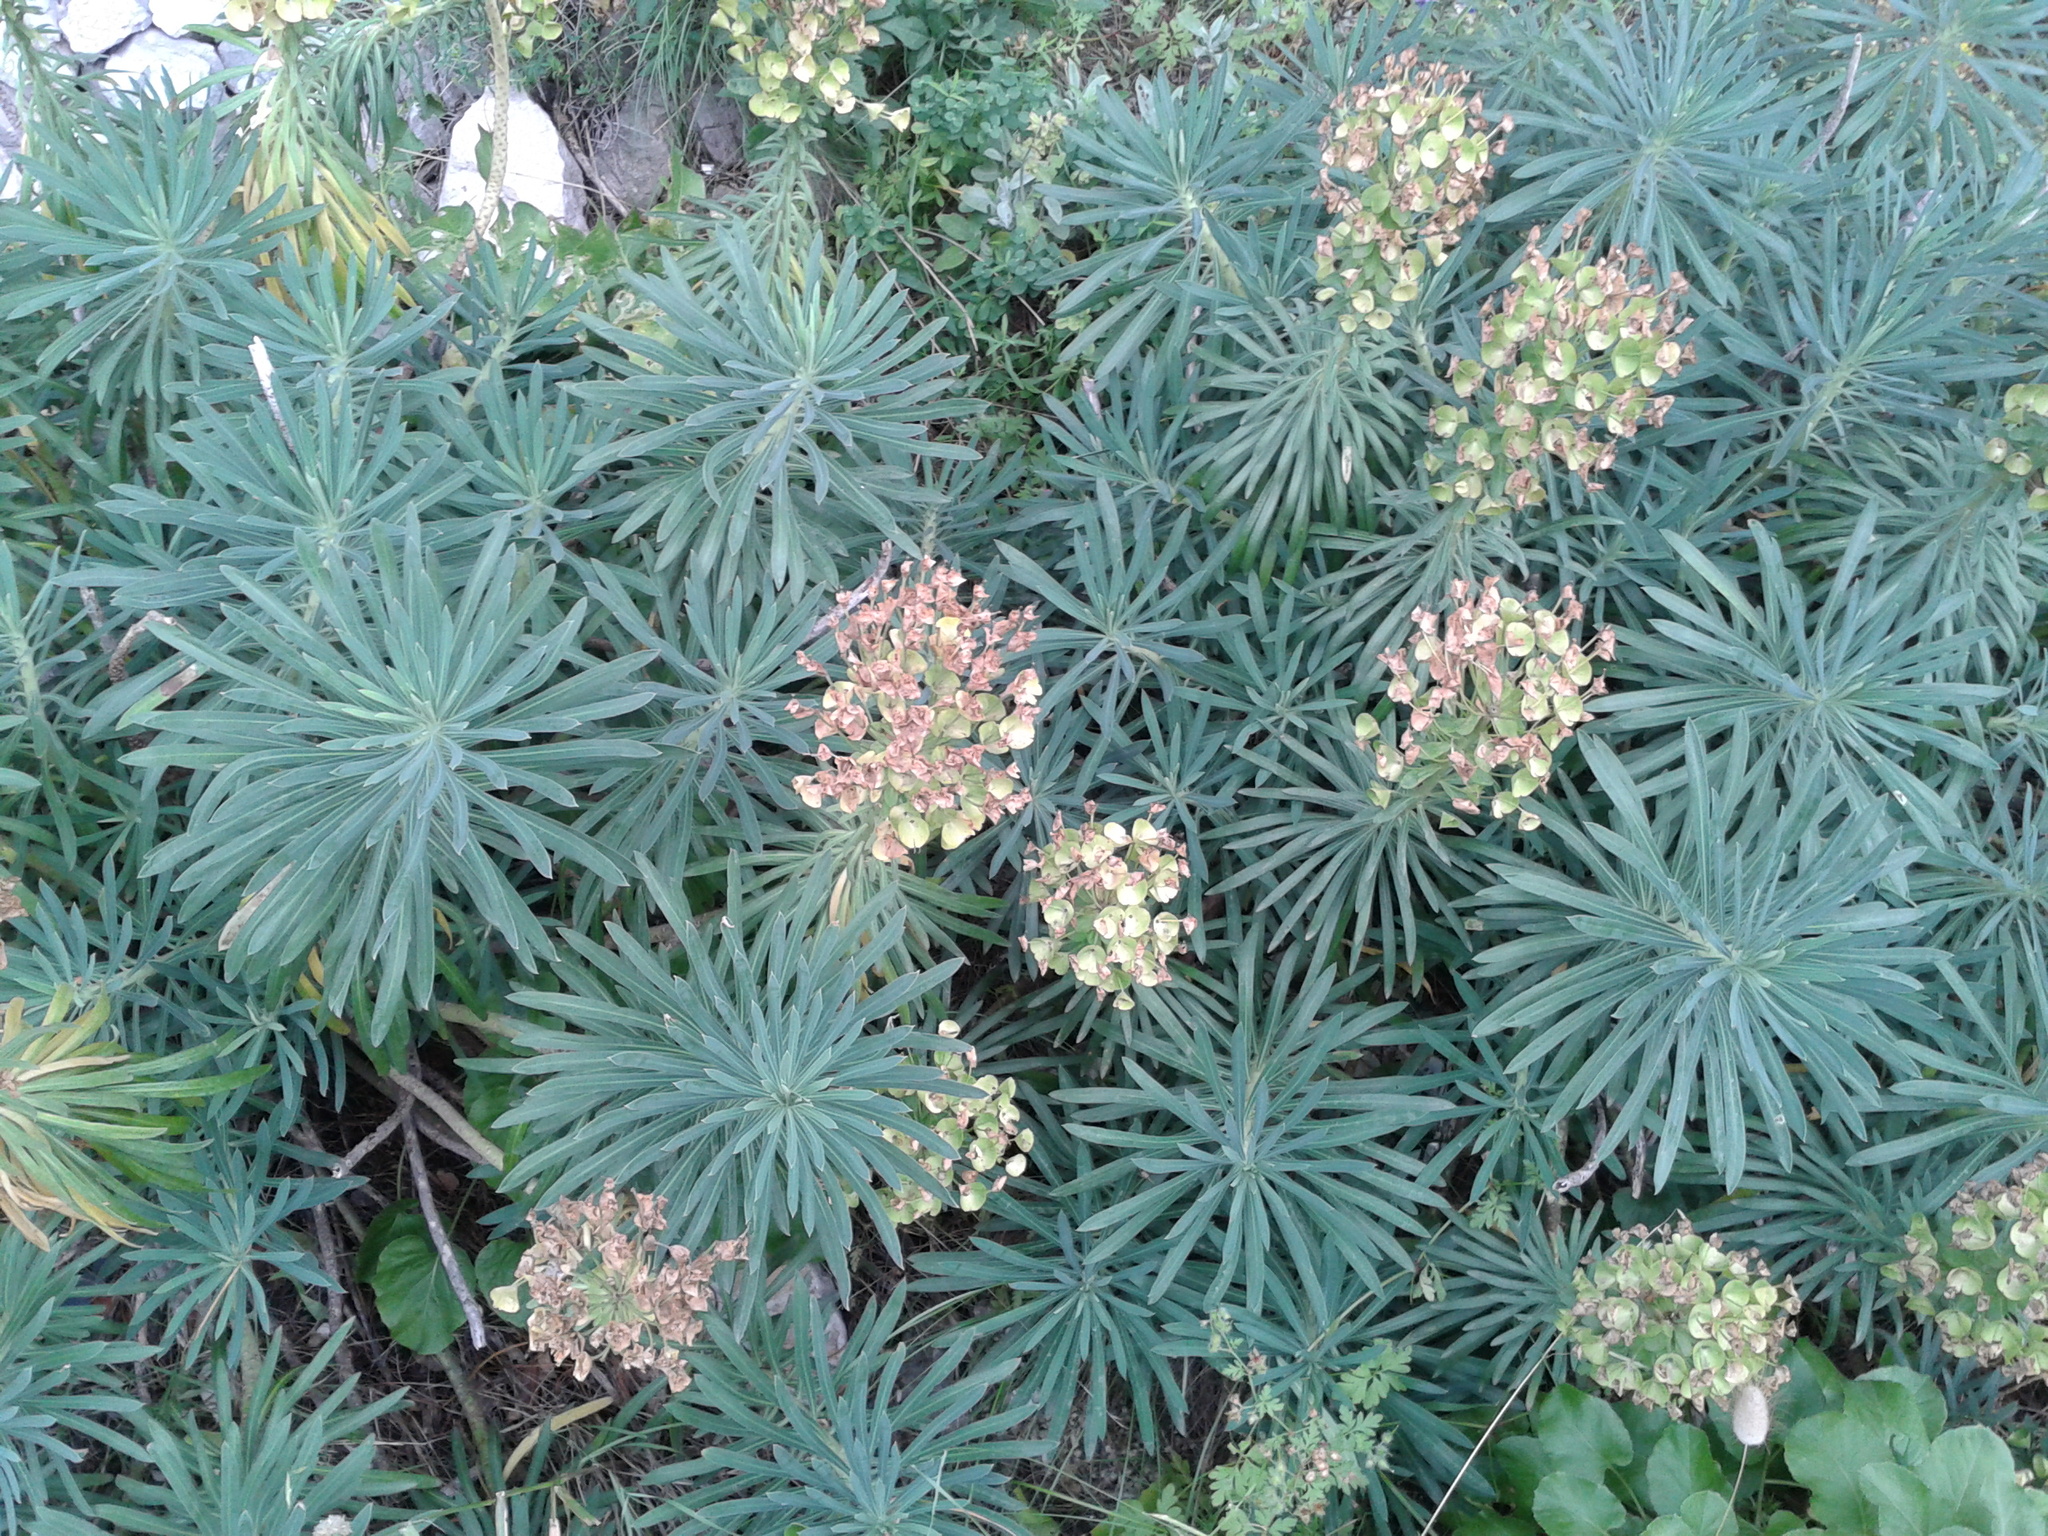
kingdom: Plantae
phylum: Tracheophyta
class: Magnoliopsida
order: Malpighiales
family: Euphorbiaceae
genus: Euphorbia
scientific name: Euphorbia characias
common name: Mediterranean spurge
